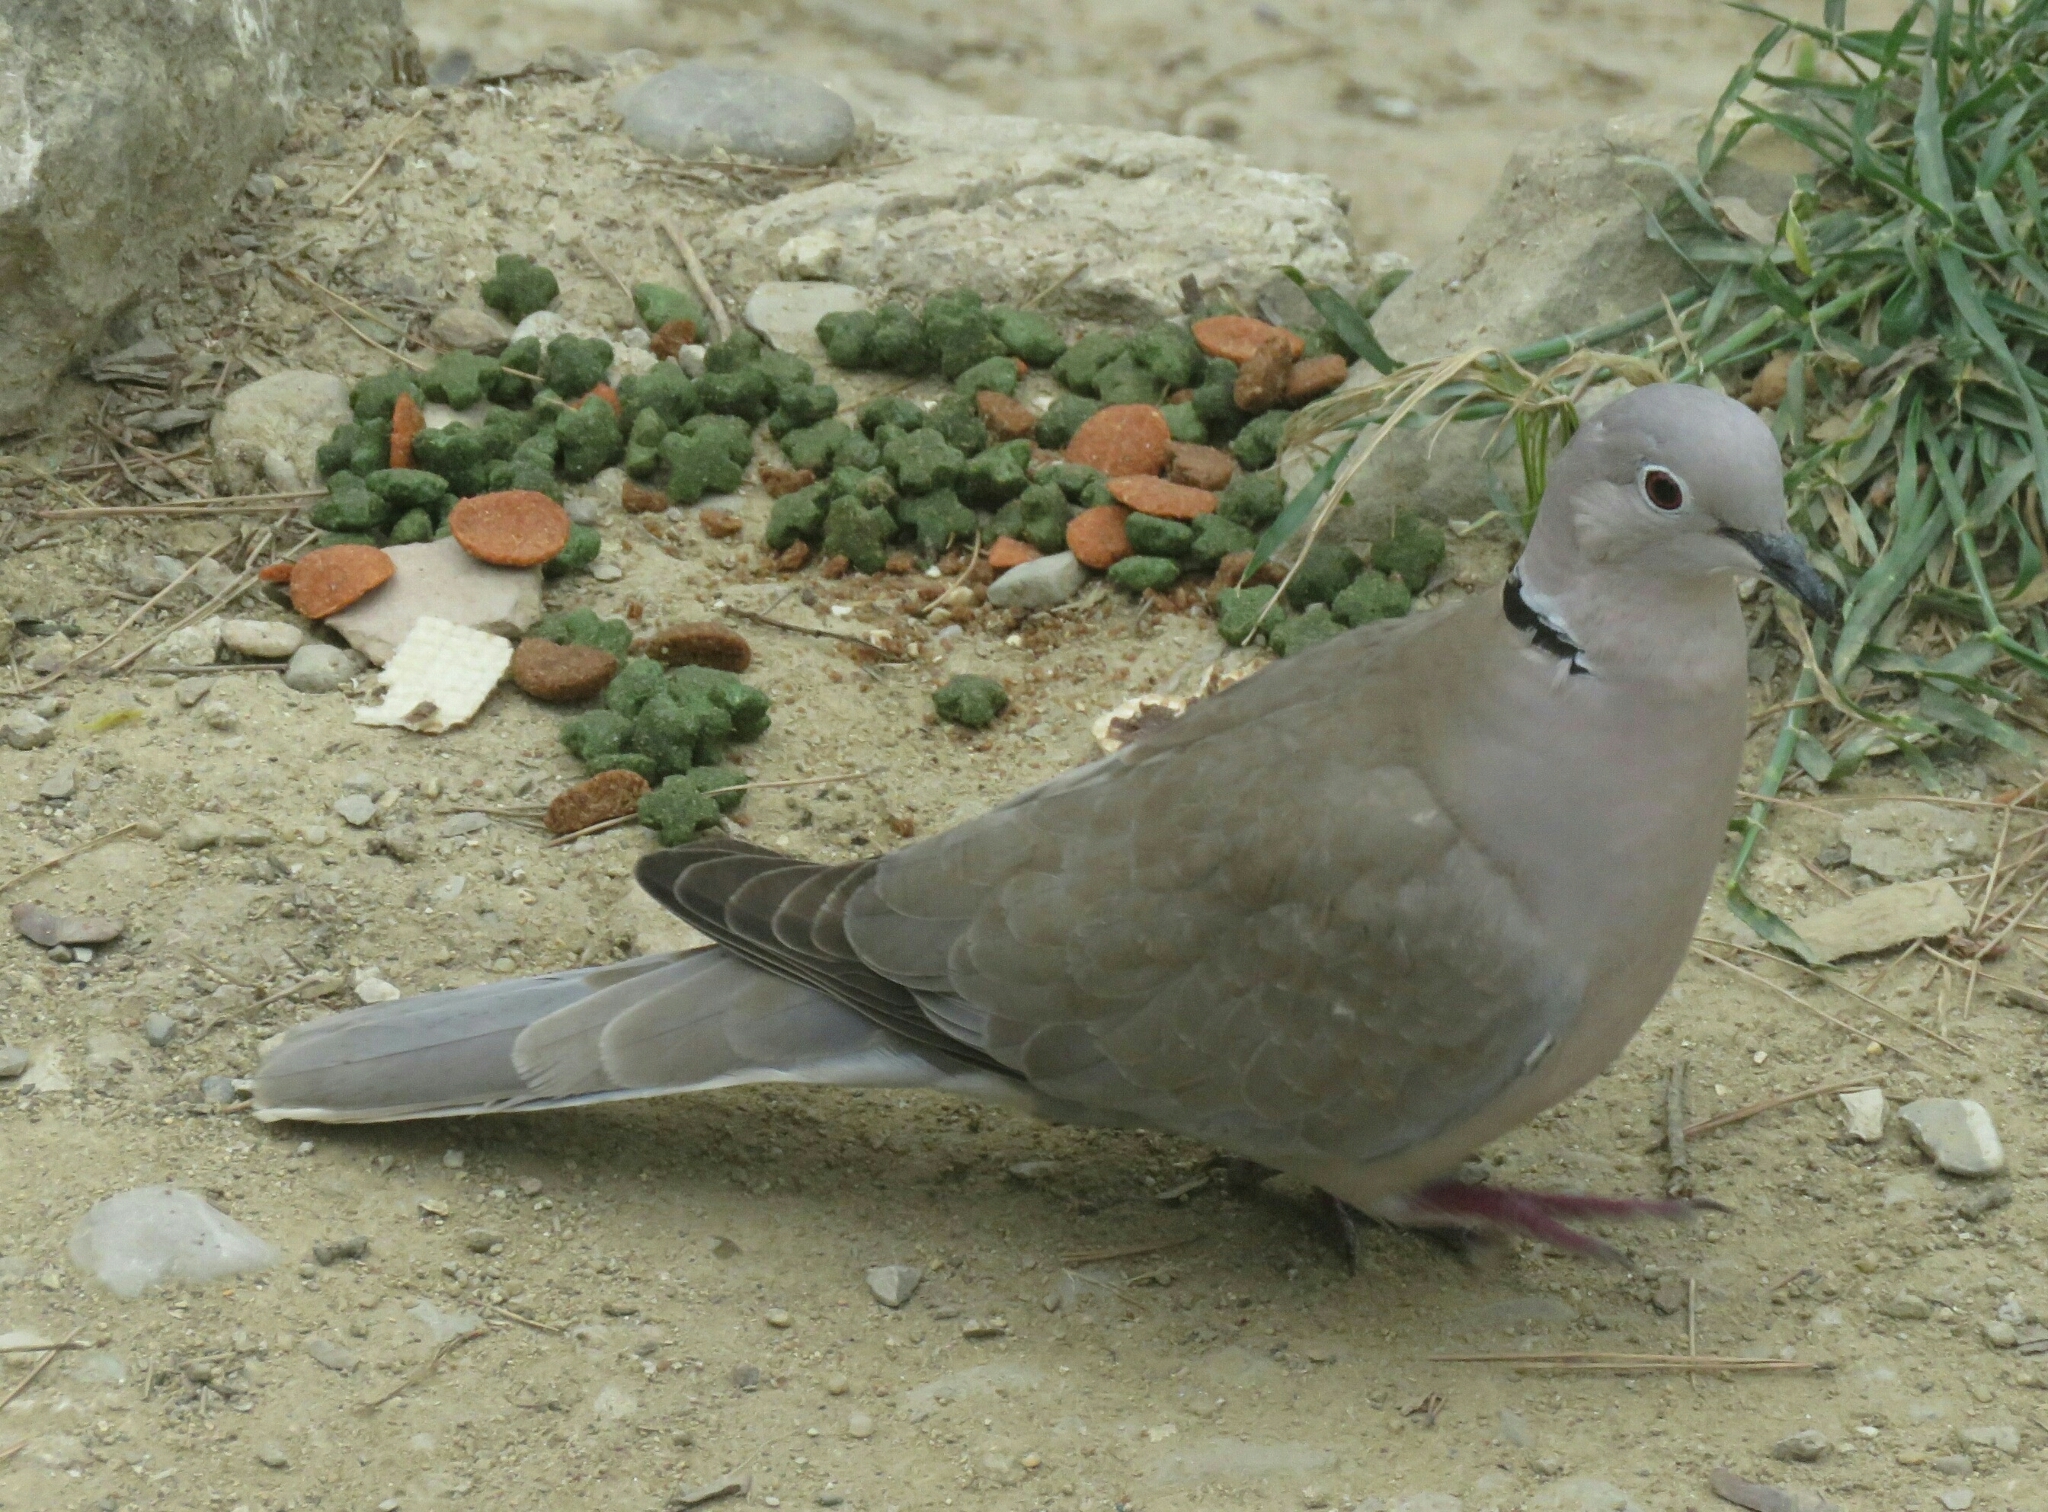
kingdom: Animalia
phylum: Chordata
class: Aves
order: Columbiformes
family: Columbidae
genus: Streptopelia
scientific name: Streptopelia decaocto
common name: Eurasian collared dove
